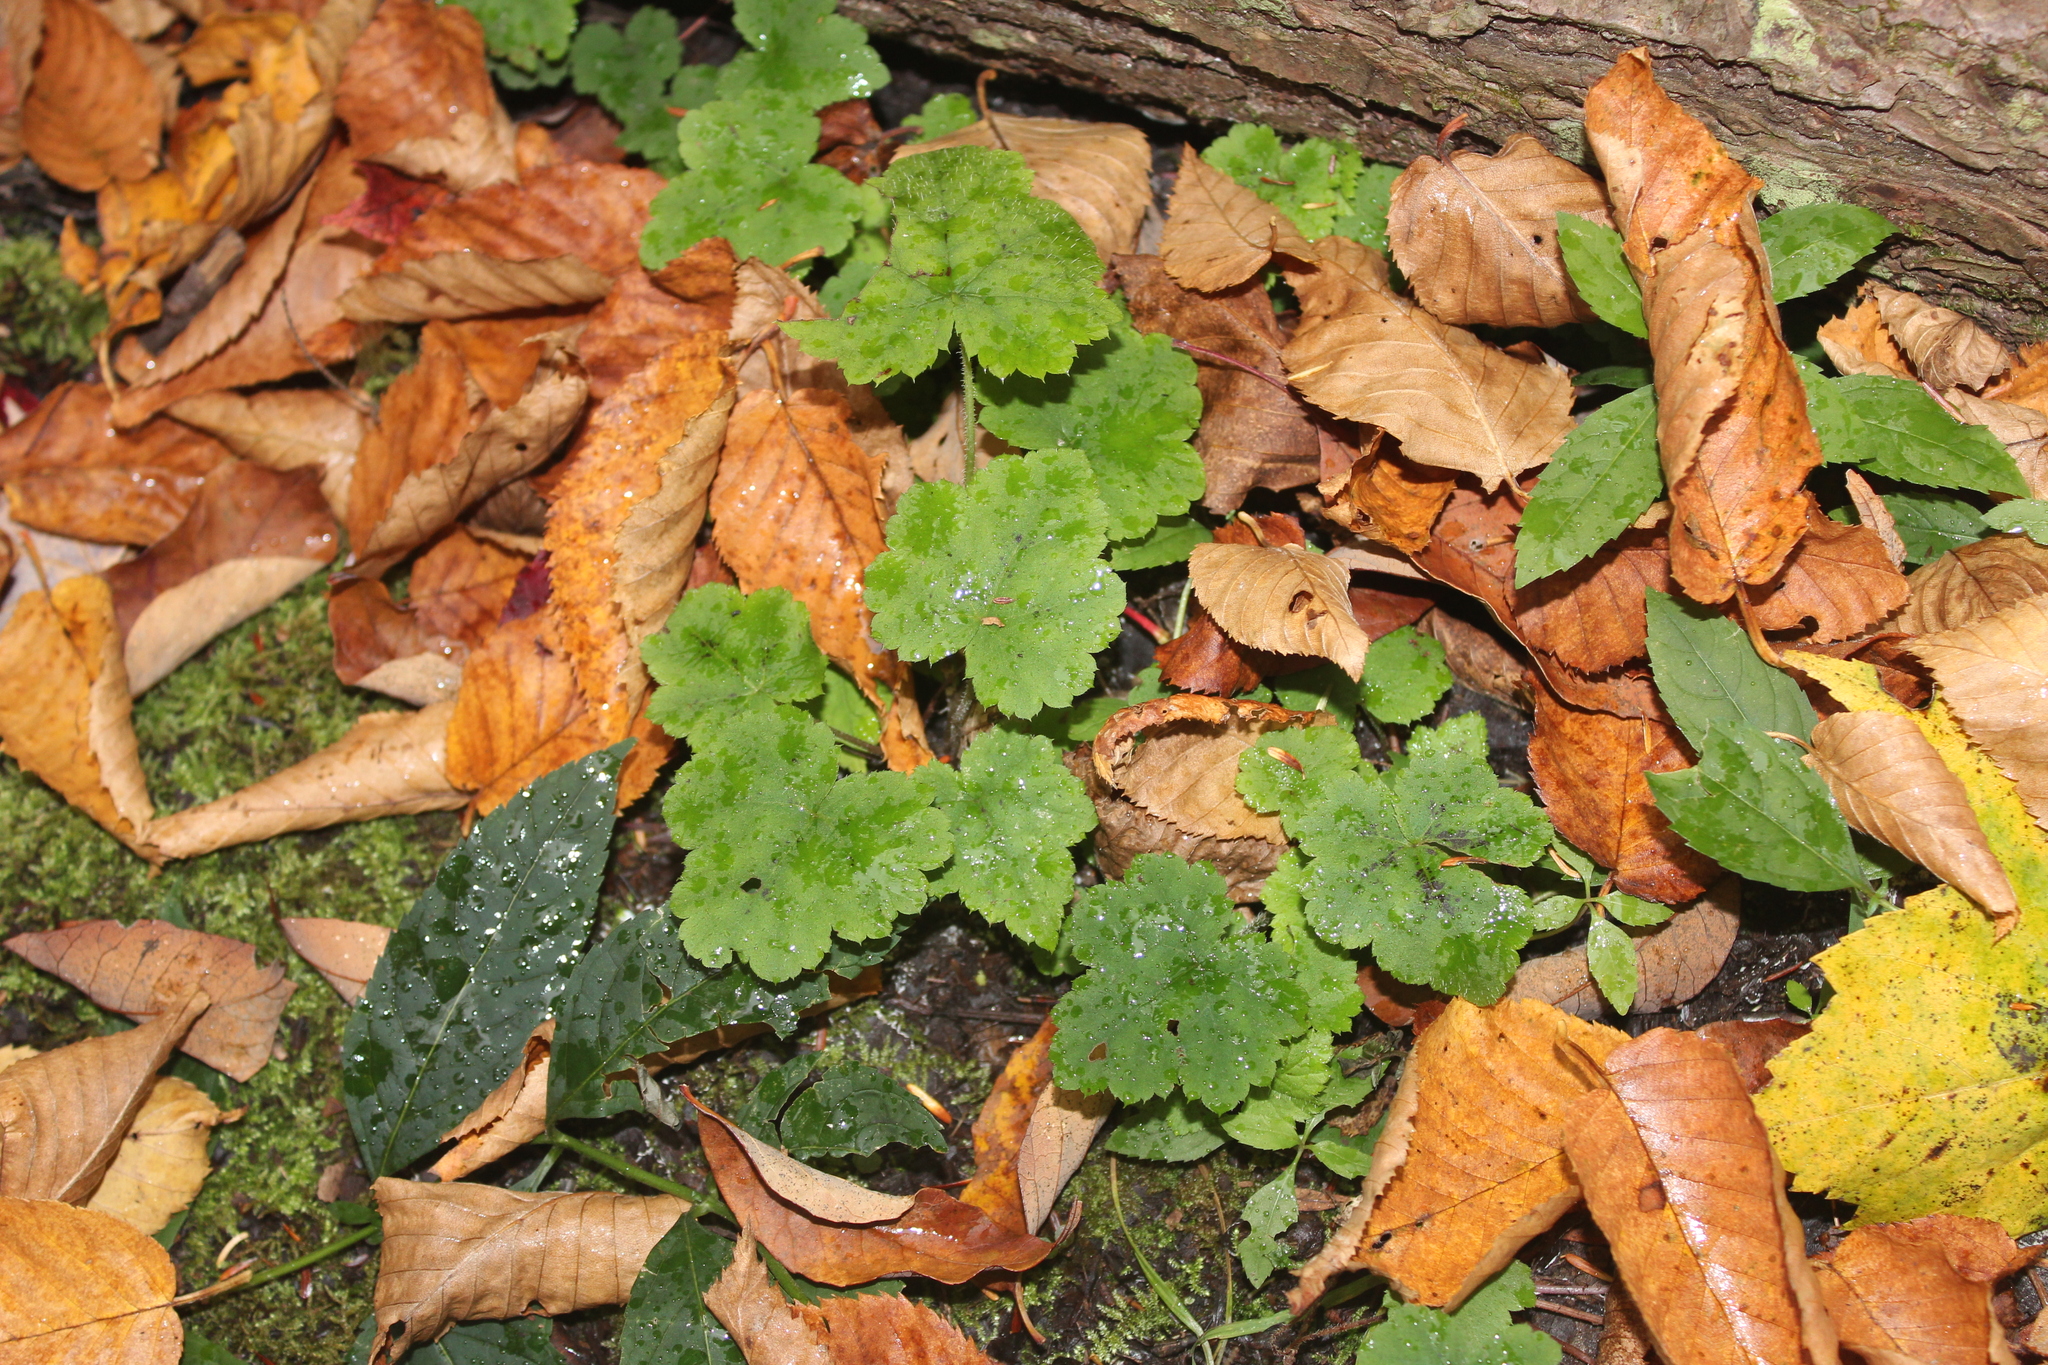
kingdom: Plantae
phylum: Tracheophyta
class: Magnoliopsida
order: Saxifragales
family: Saxifragaceae
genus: Tiarella
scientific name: Tiarella stolonifera
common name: Stoloniferous foamflower
